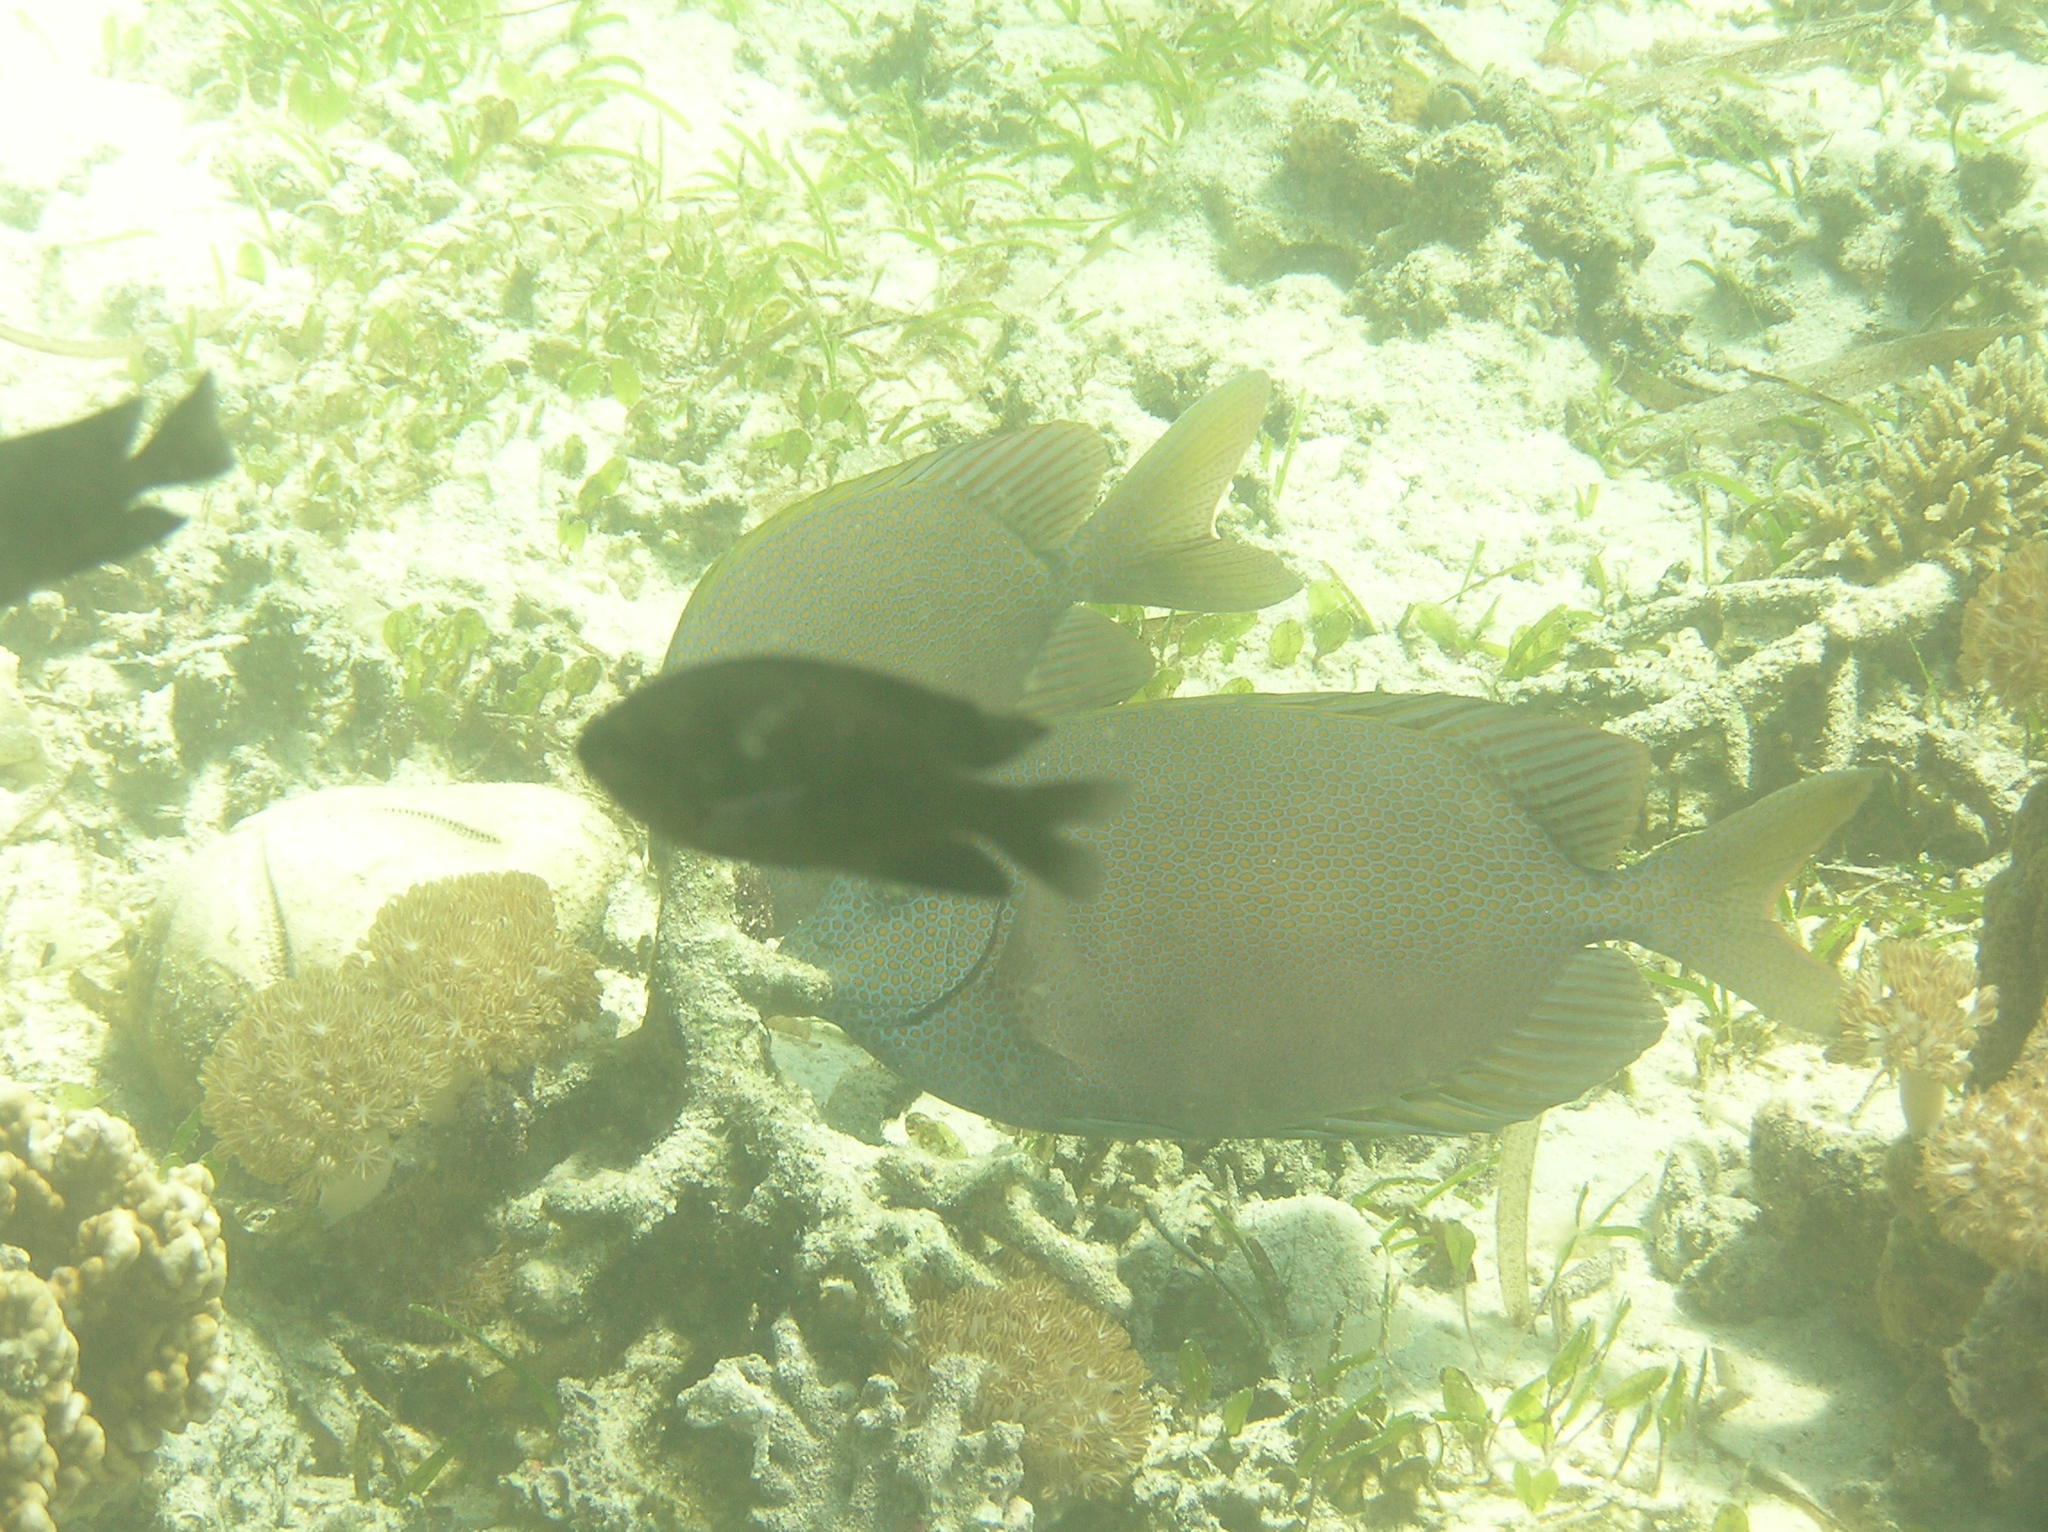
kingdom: Animalia
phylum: Chordata
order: Perciformes
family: Siganidae
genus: Siganus
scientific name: Siganus punctatus
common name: Gold-spotted rabbitfish
